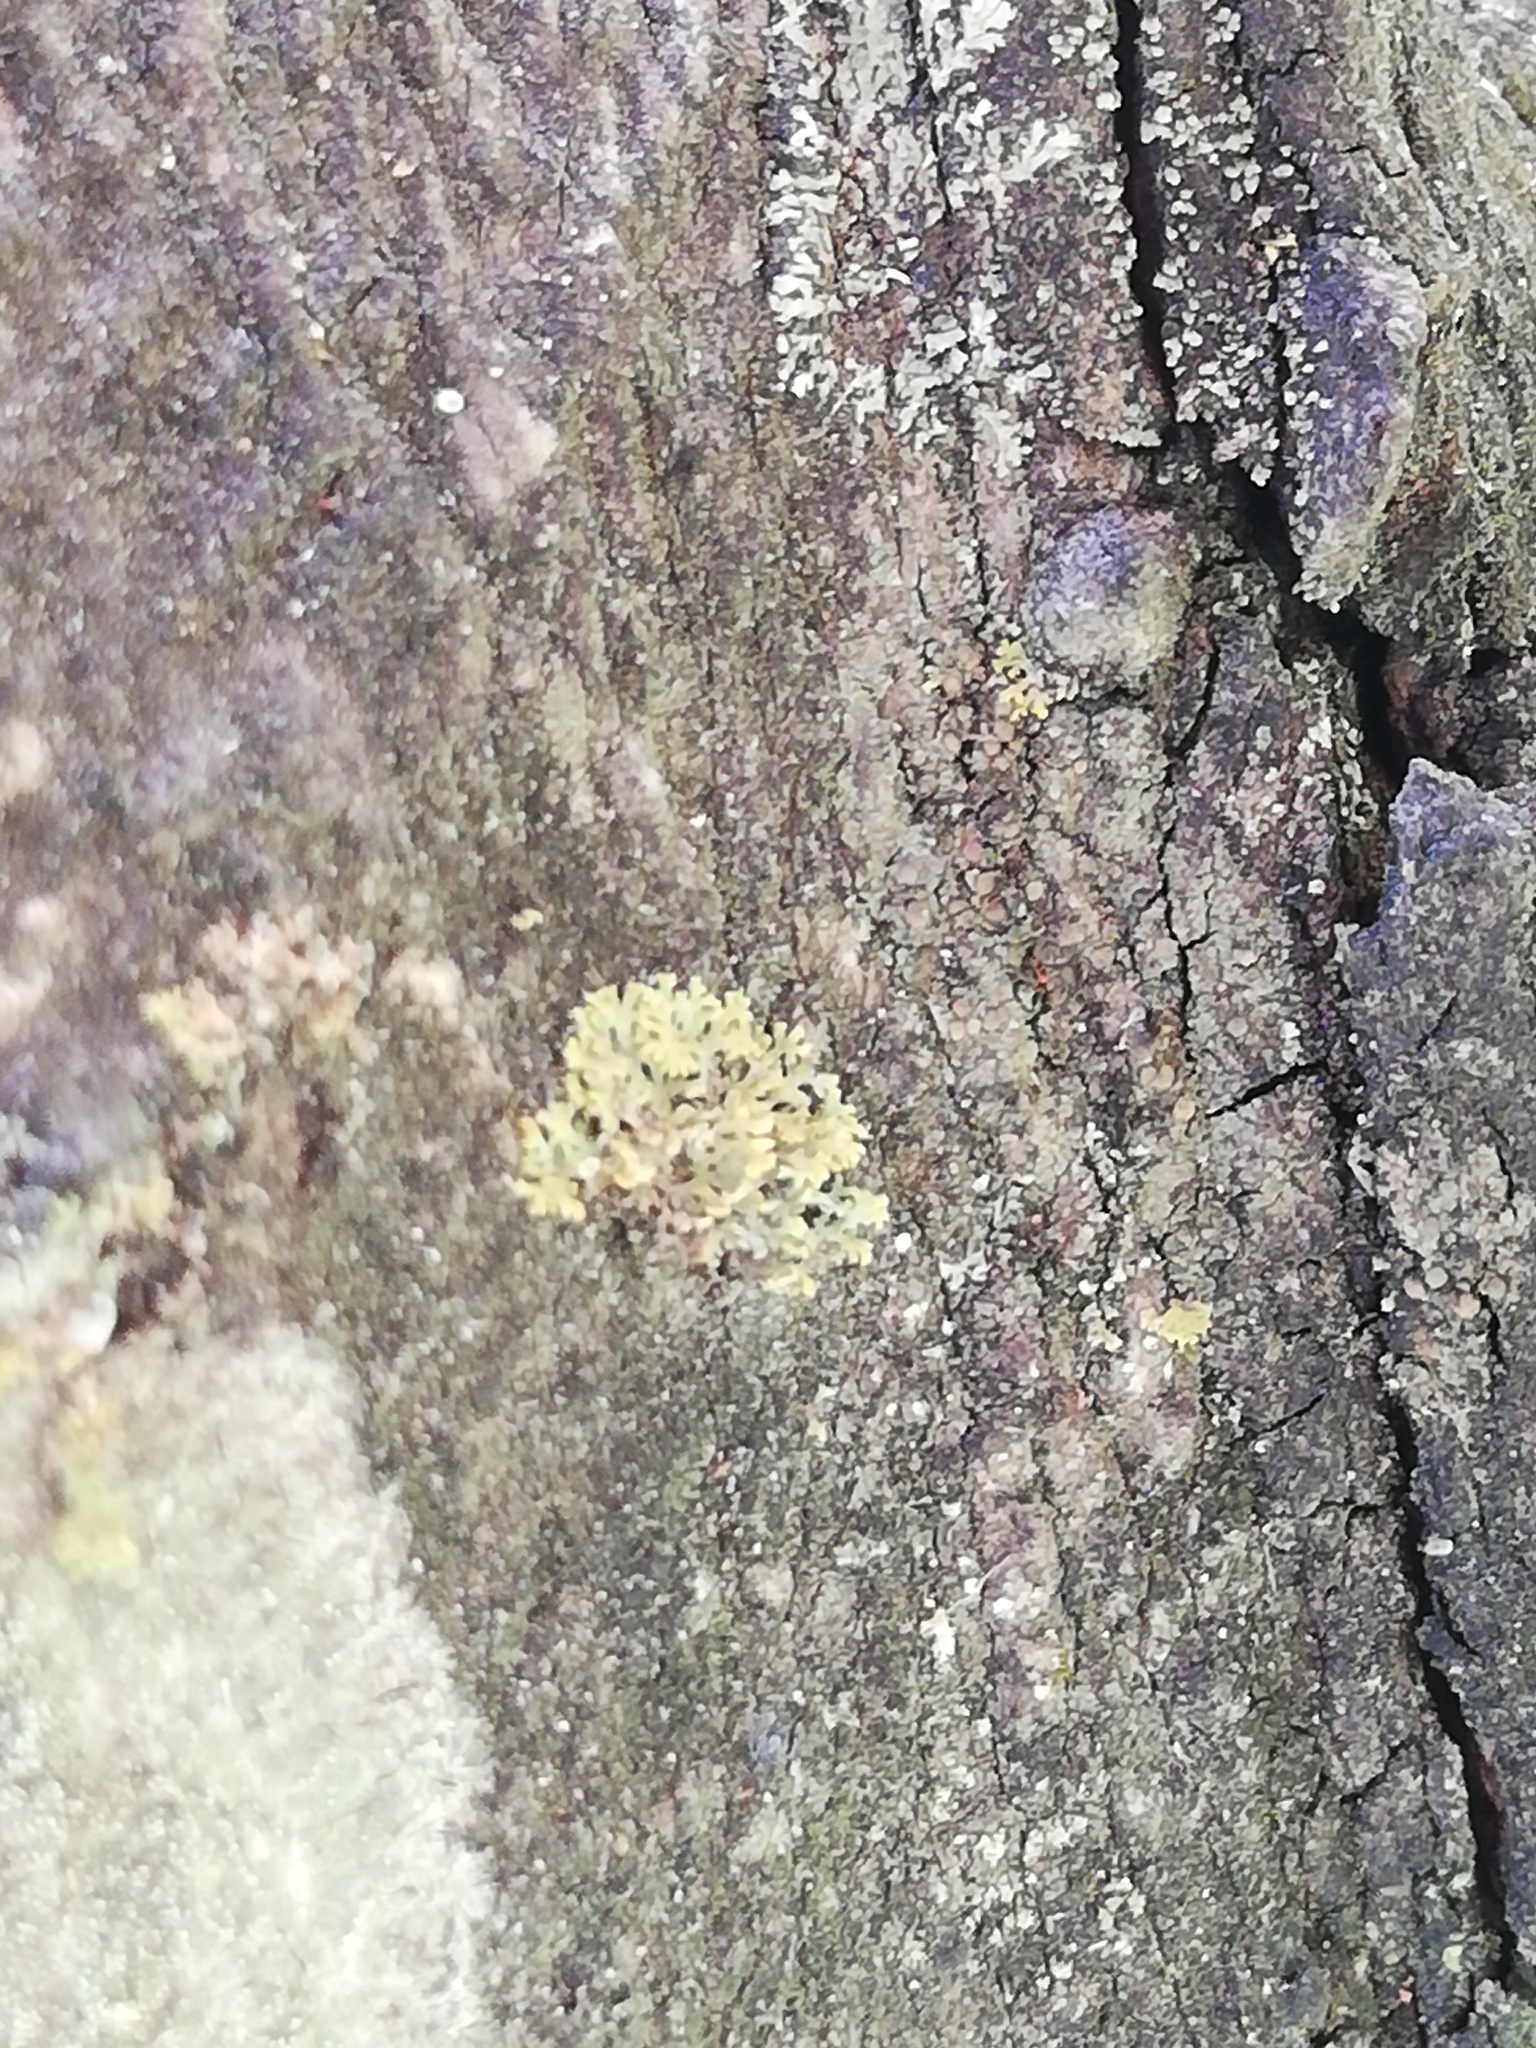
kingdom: Fungi
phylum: Ascomycota
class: Lecanoromycetes
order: Teloschistales
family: Teloschistaceae
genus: Gallowayella
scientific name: Gallowayella weberi
